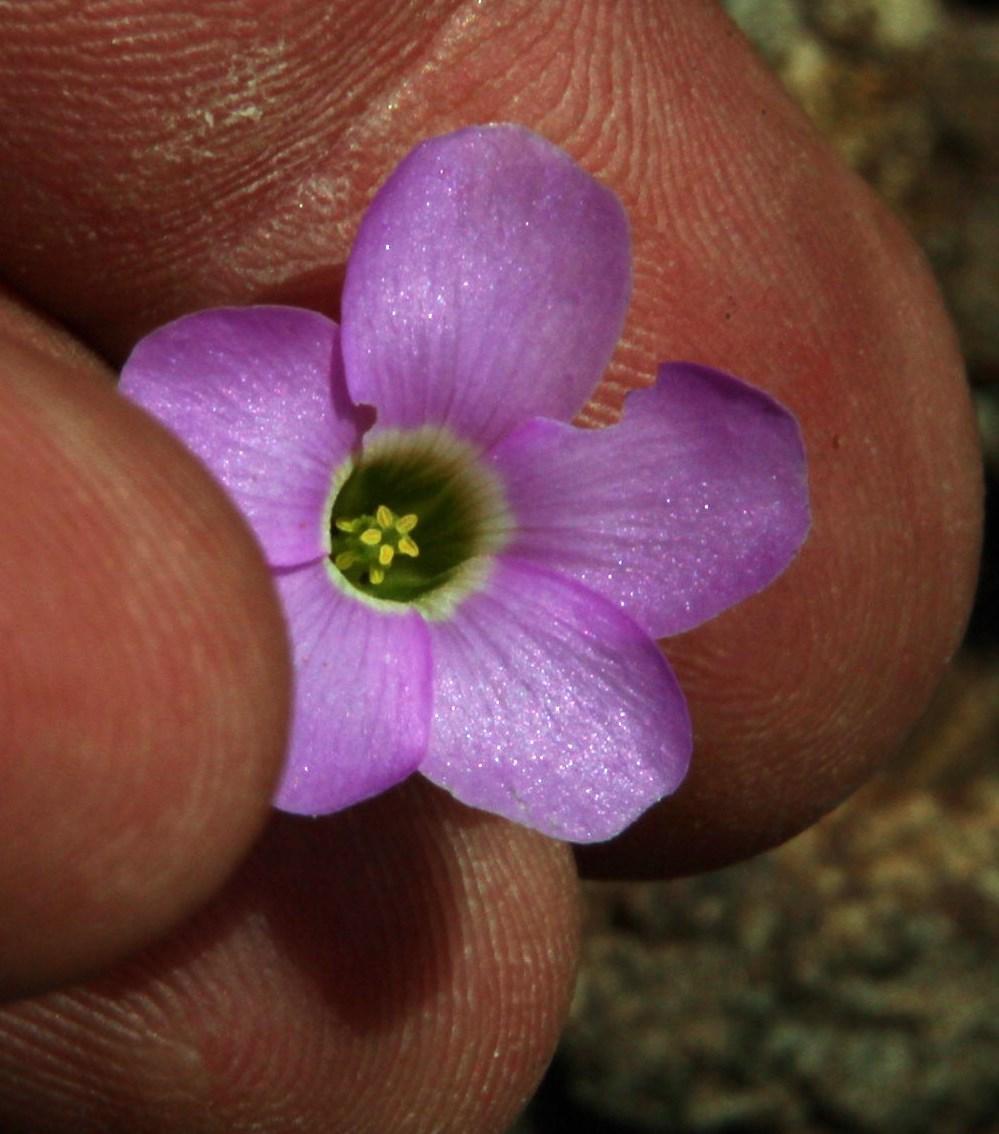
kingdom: Plantae
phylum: Tracheophyta
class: Magnoliopsida
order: Oxalidales
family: Oxalidaceae
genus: Oxalis
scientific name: Oxalis
